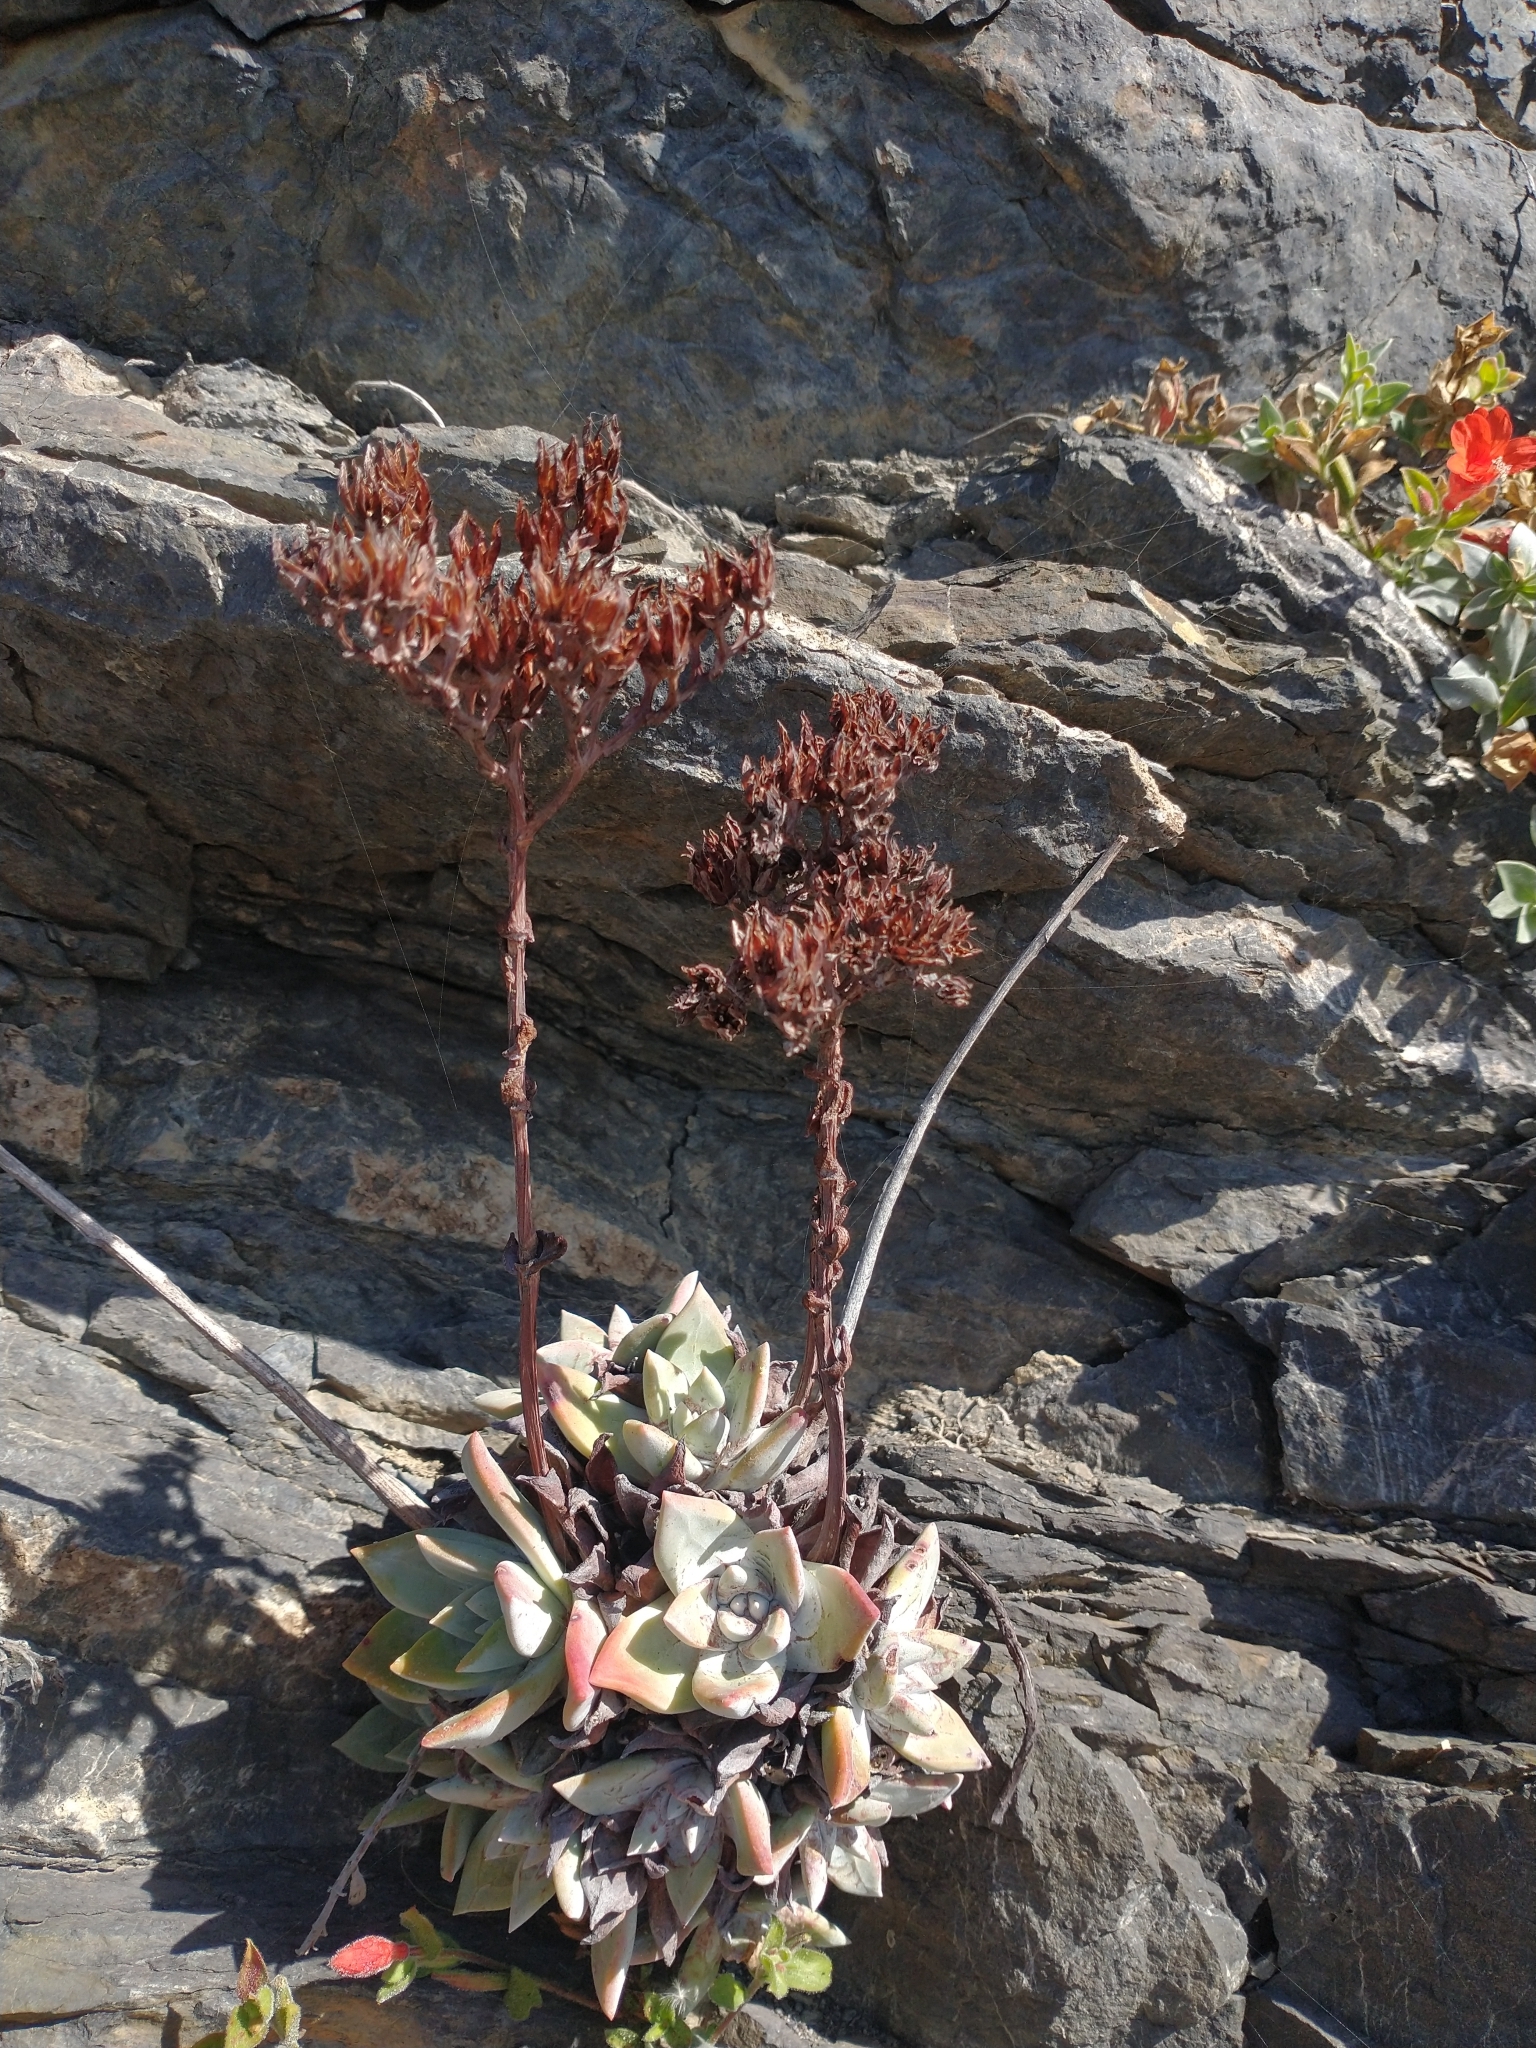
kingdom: Plantae
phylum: Tracheophyta
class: Magnoliopsida
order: Saxifragales
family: Crassulaceae
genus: Dudleya
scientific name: Dudleya farinosa
